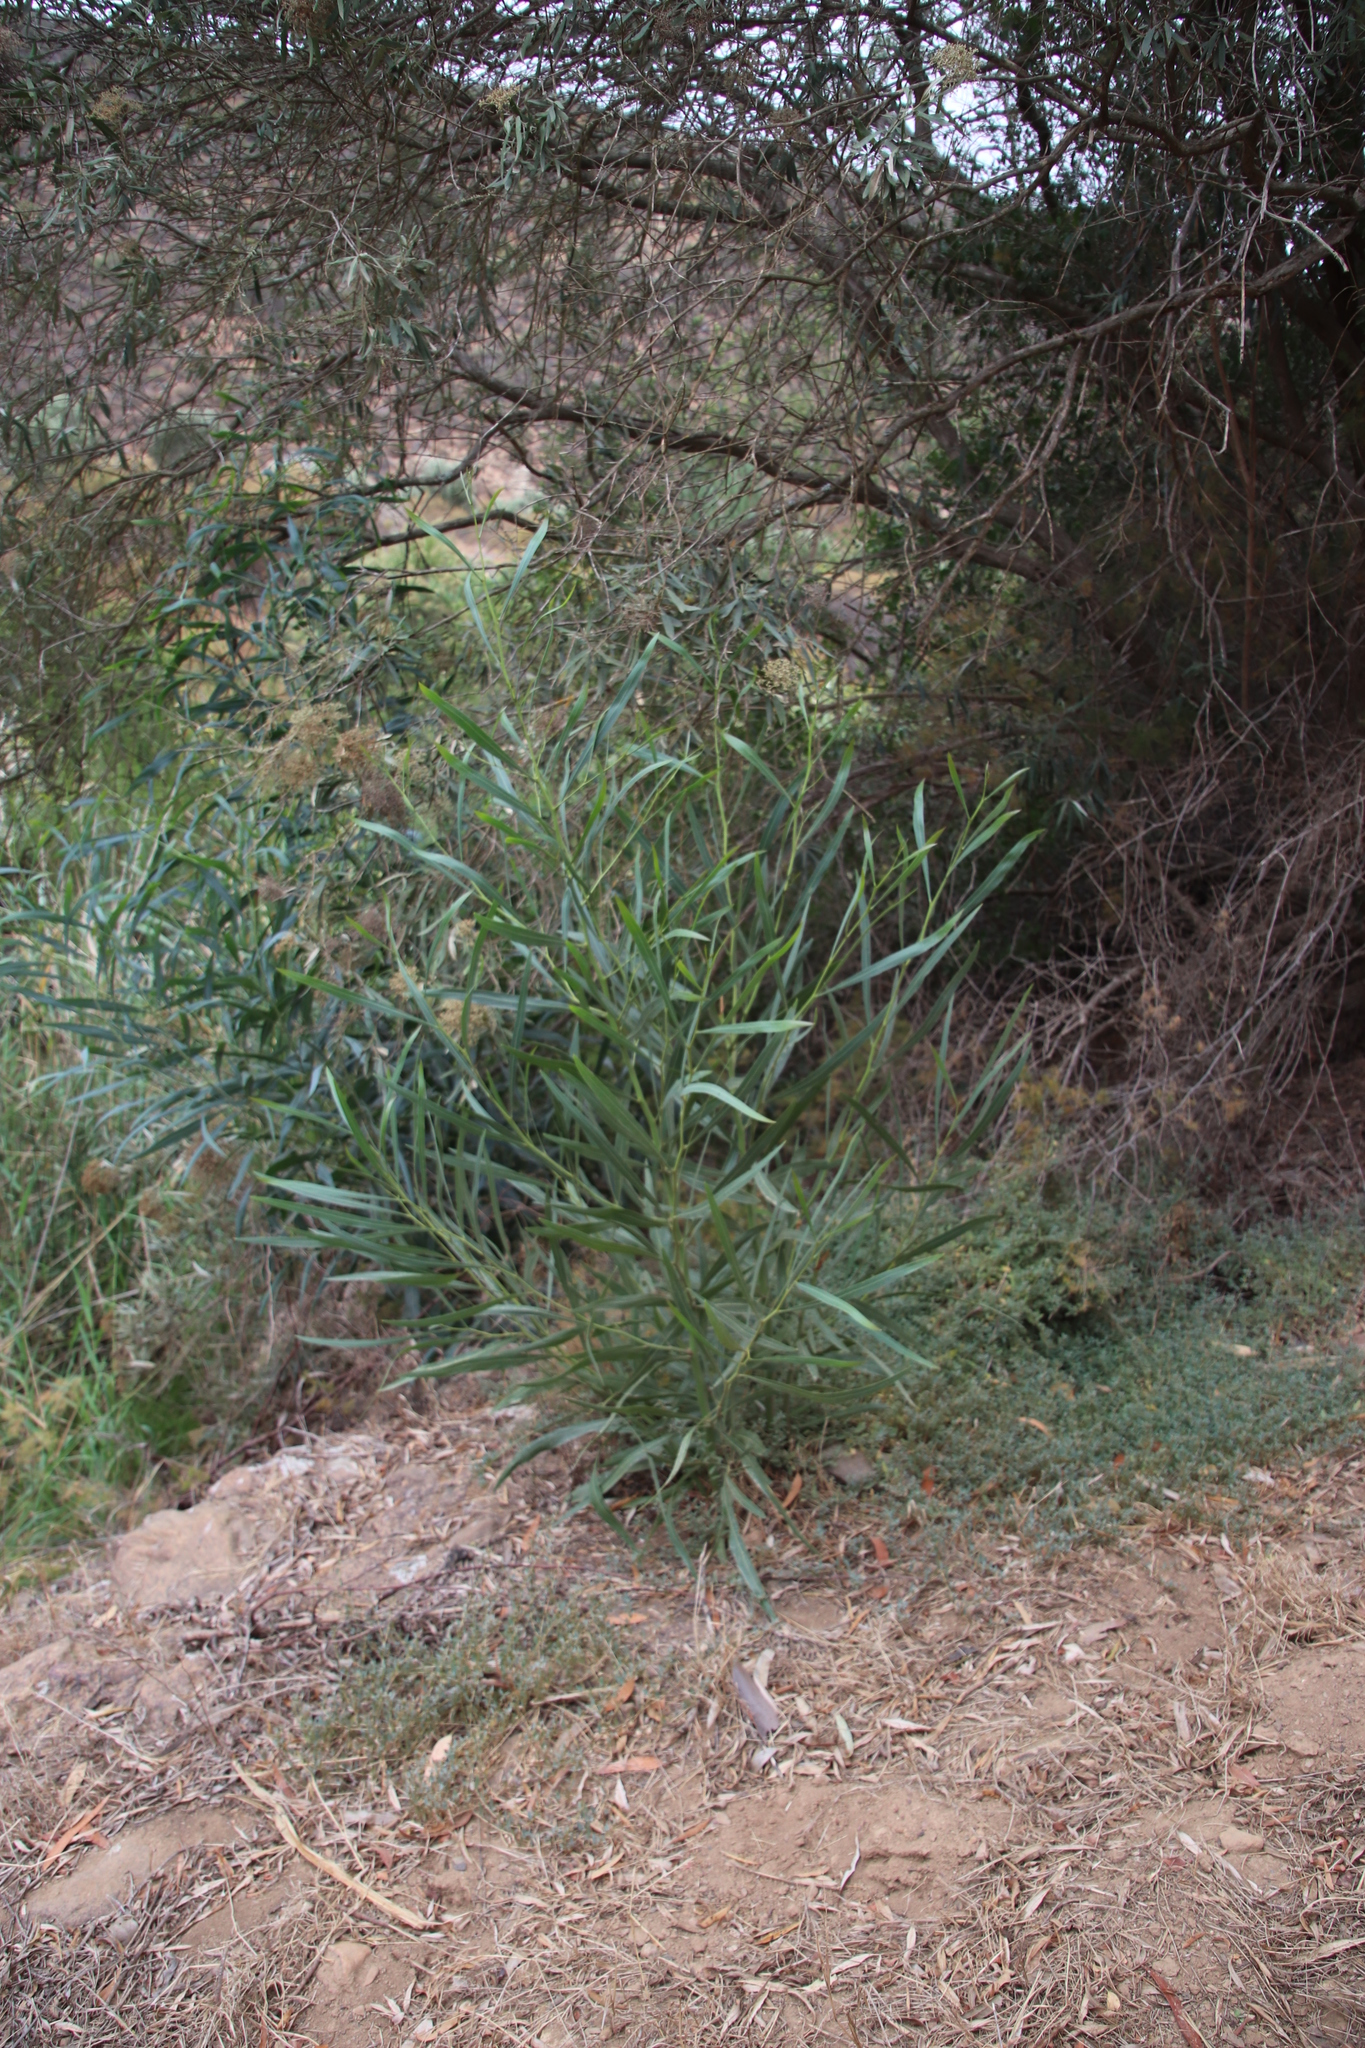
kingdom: Plantae
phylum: Tracheophyta
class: Magnoliopsida
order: Fabales
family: Fabaceae
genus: Acacia
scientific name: Acacia saligna
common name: Orange wattle
